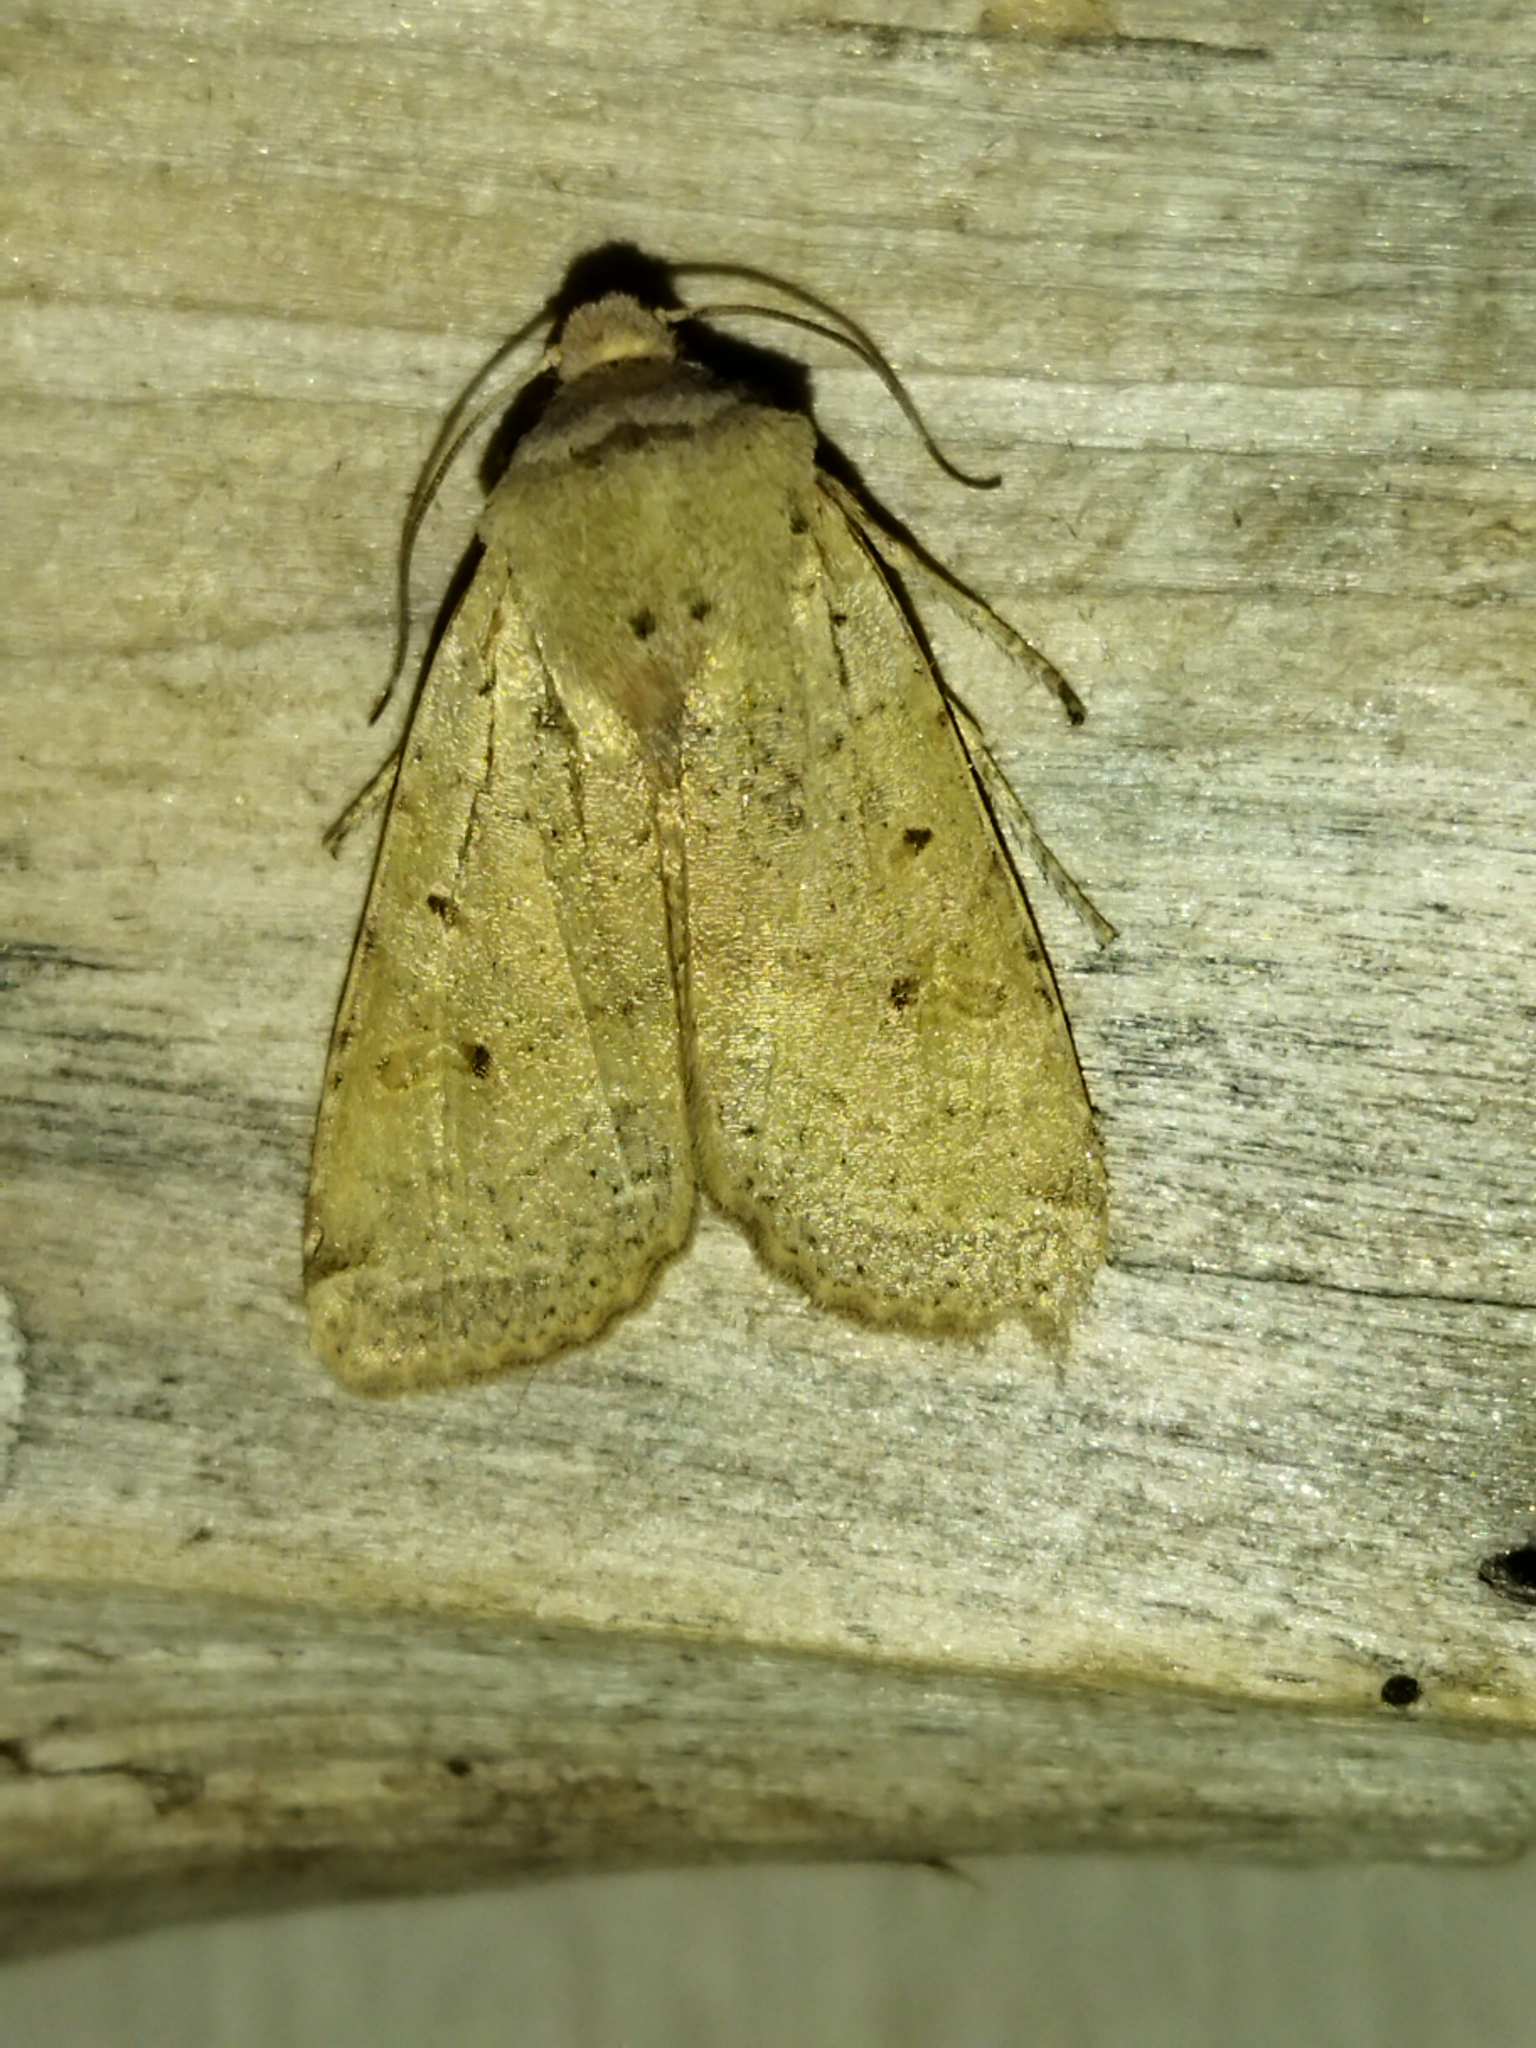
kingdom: Animalia
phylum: Arthropoda
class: Insecta
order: Lepidoptera
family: Noctuidae
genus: Agrochola
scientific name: Agrochola lychnidis
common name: Beaded chestnut
